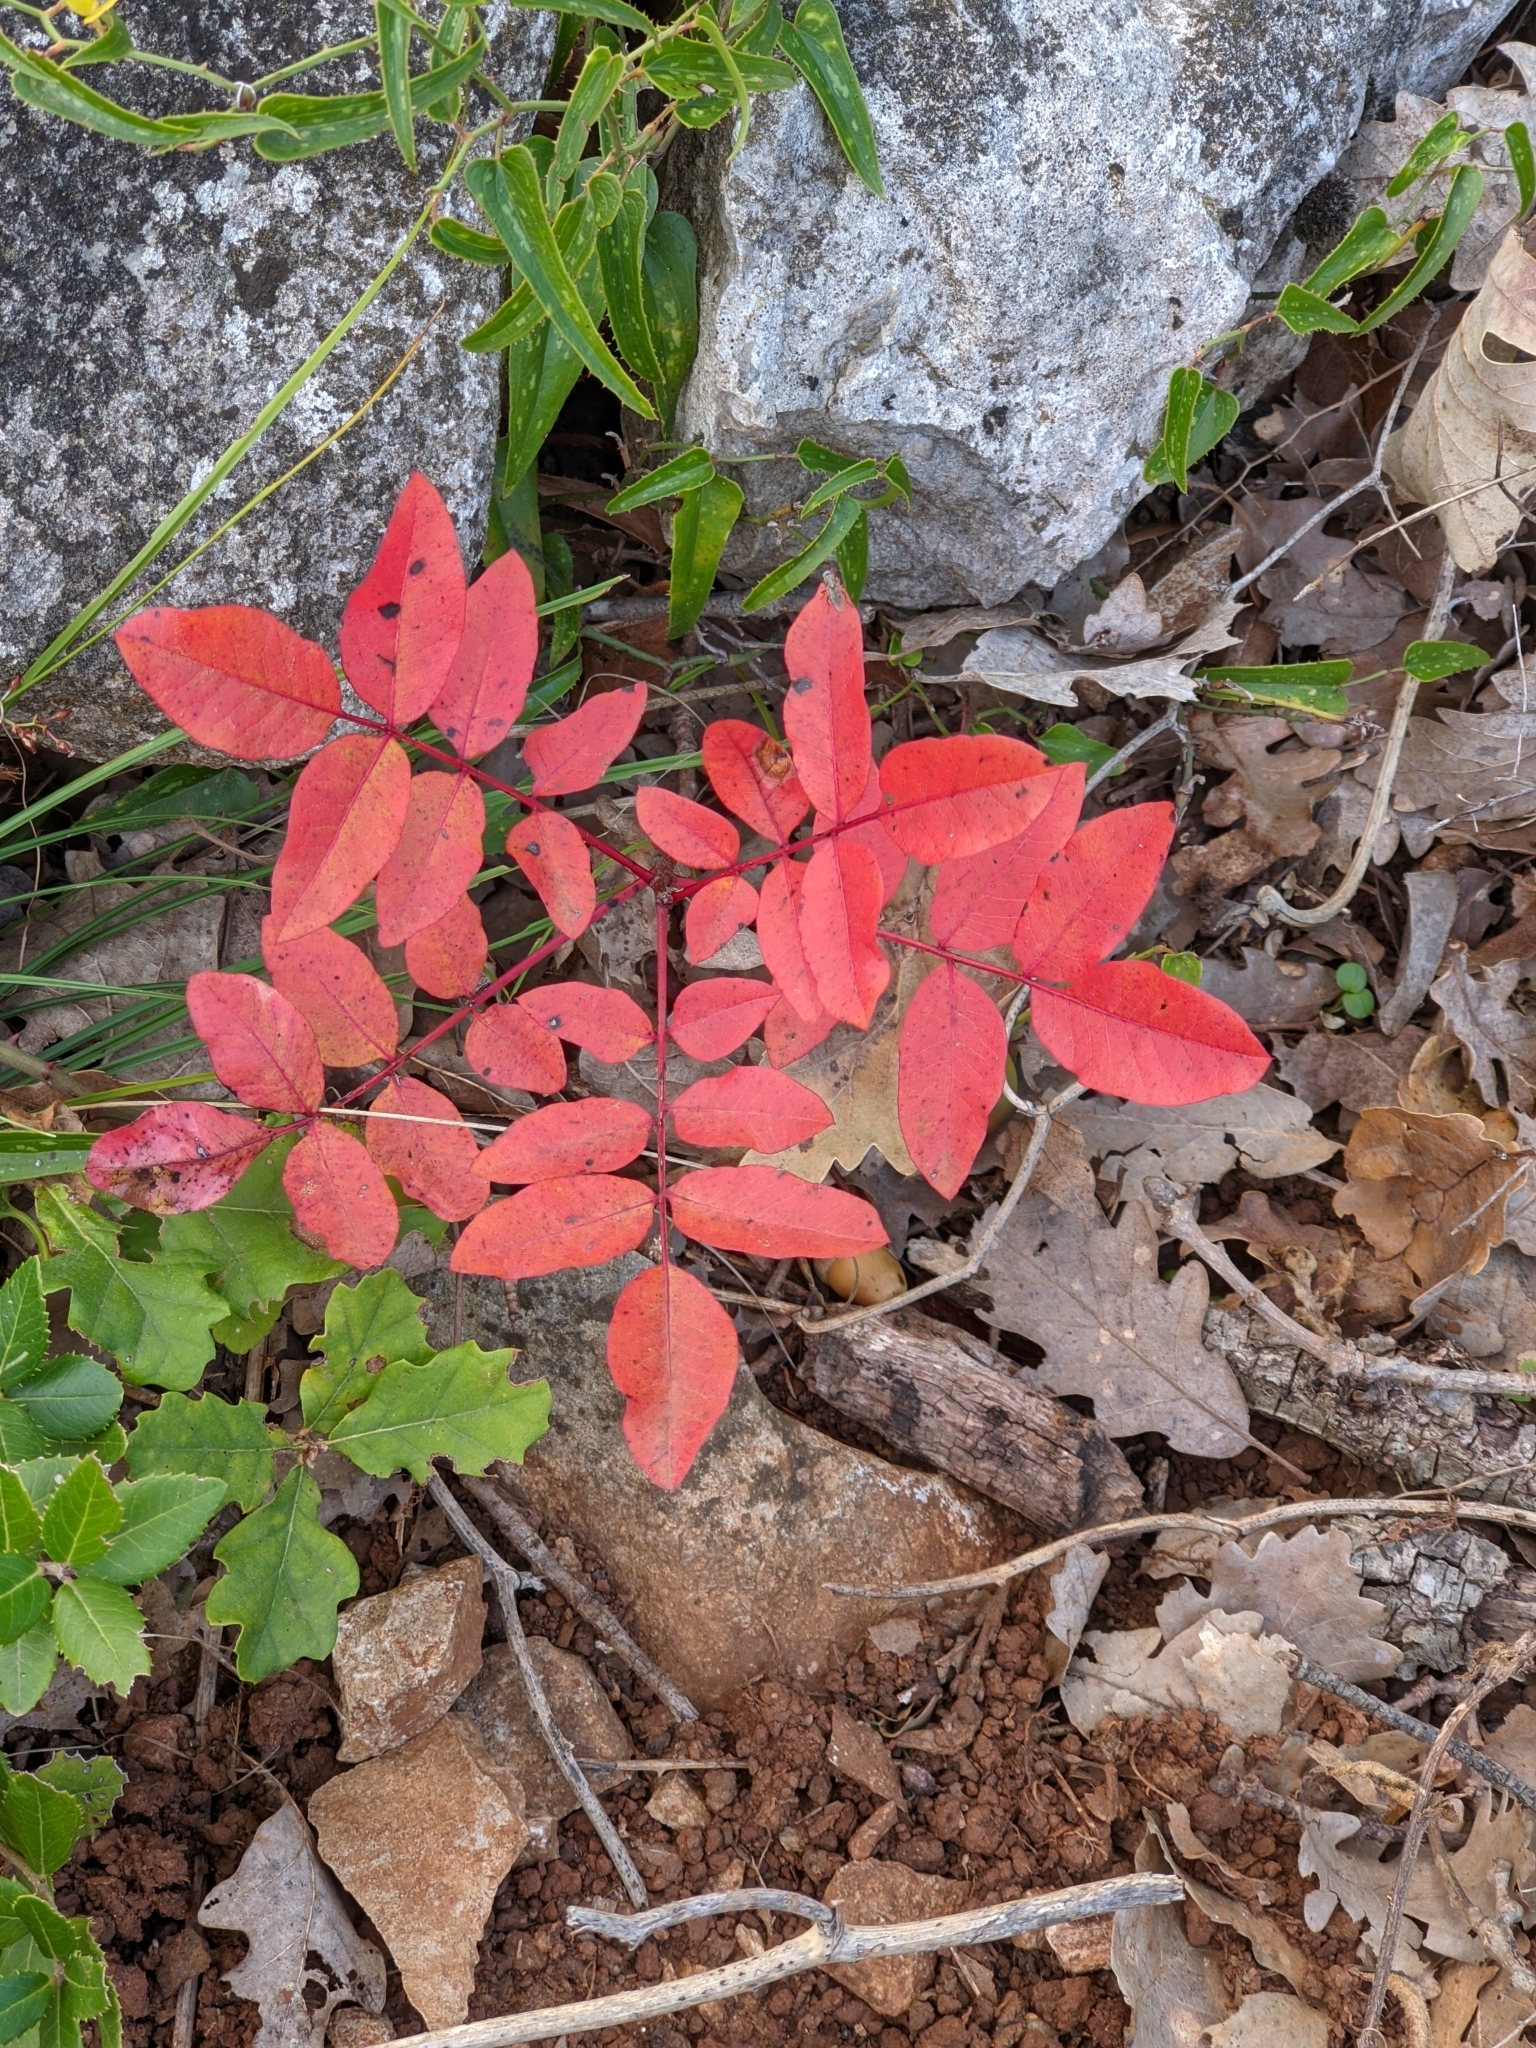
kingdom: Plantae
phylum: Tracheophyta
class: Magnoliopsida
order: Sapindales
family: Anacardiaceae
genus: Pistacia
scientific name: Pistacia terebinthus
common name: Terebinth
